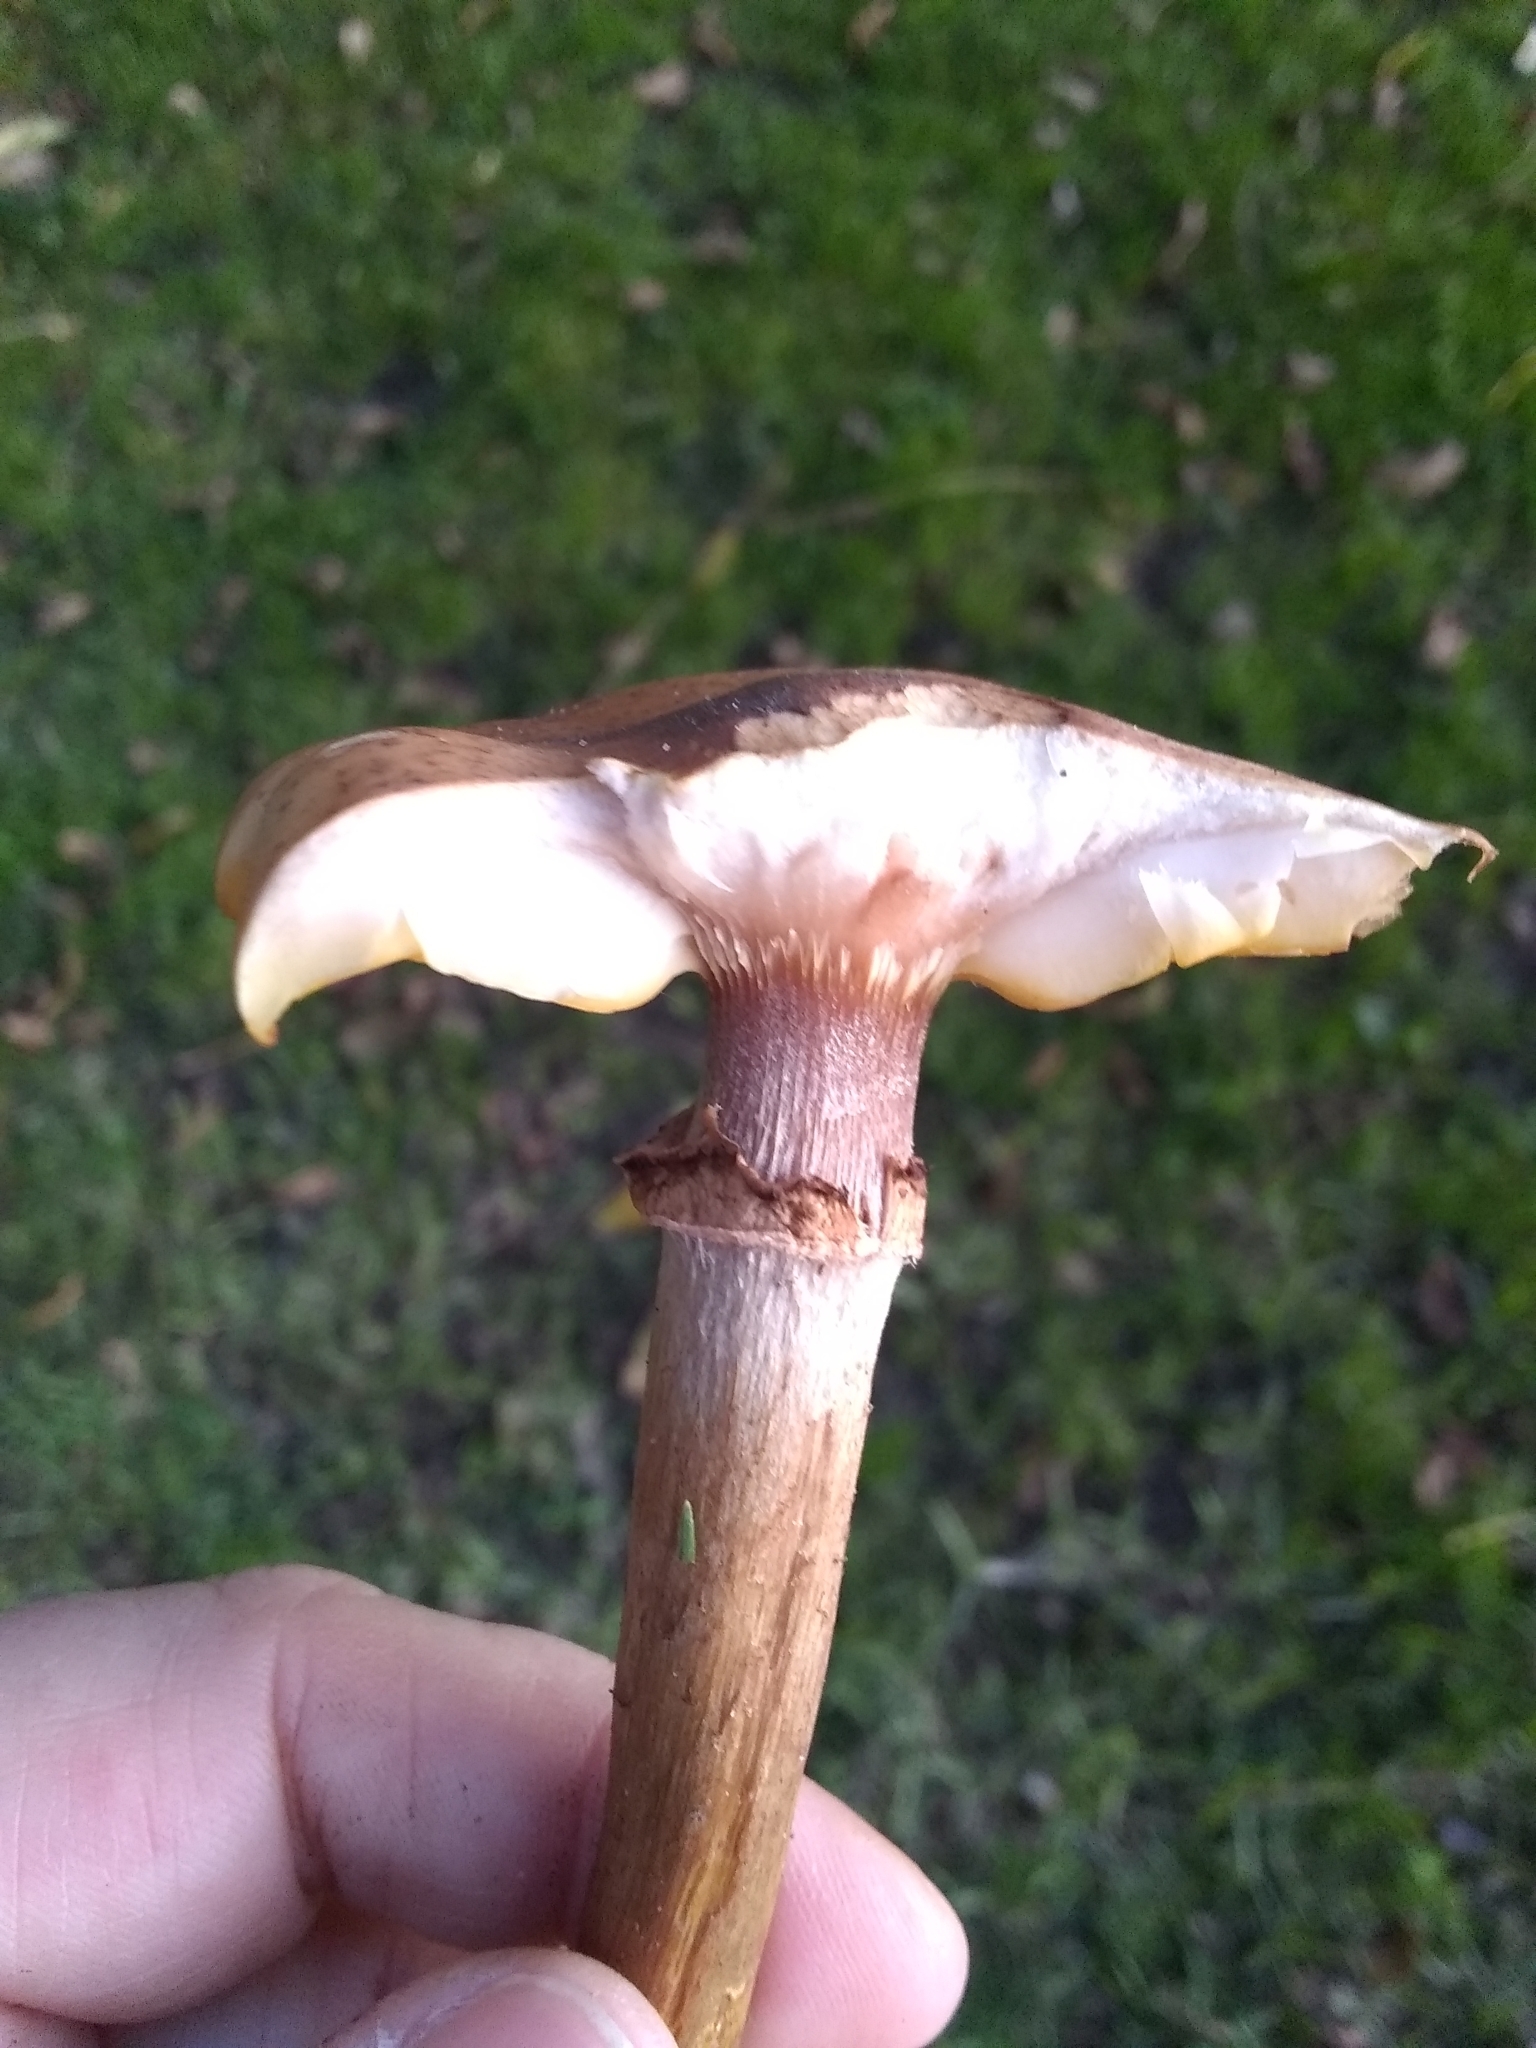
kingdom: Fungi
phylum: Basidiomycota
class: Agaricomycetes
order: Agaricales
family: Physalacriaceae
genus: Armillaria
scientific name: Armillaria mellea
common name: Honey fungus
